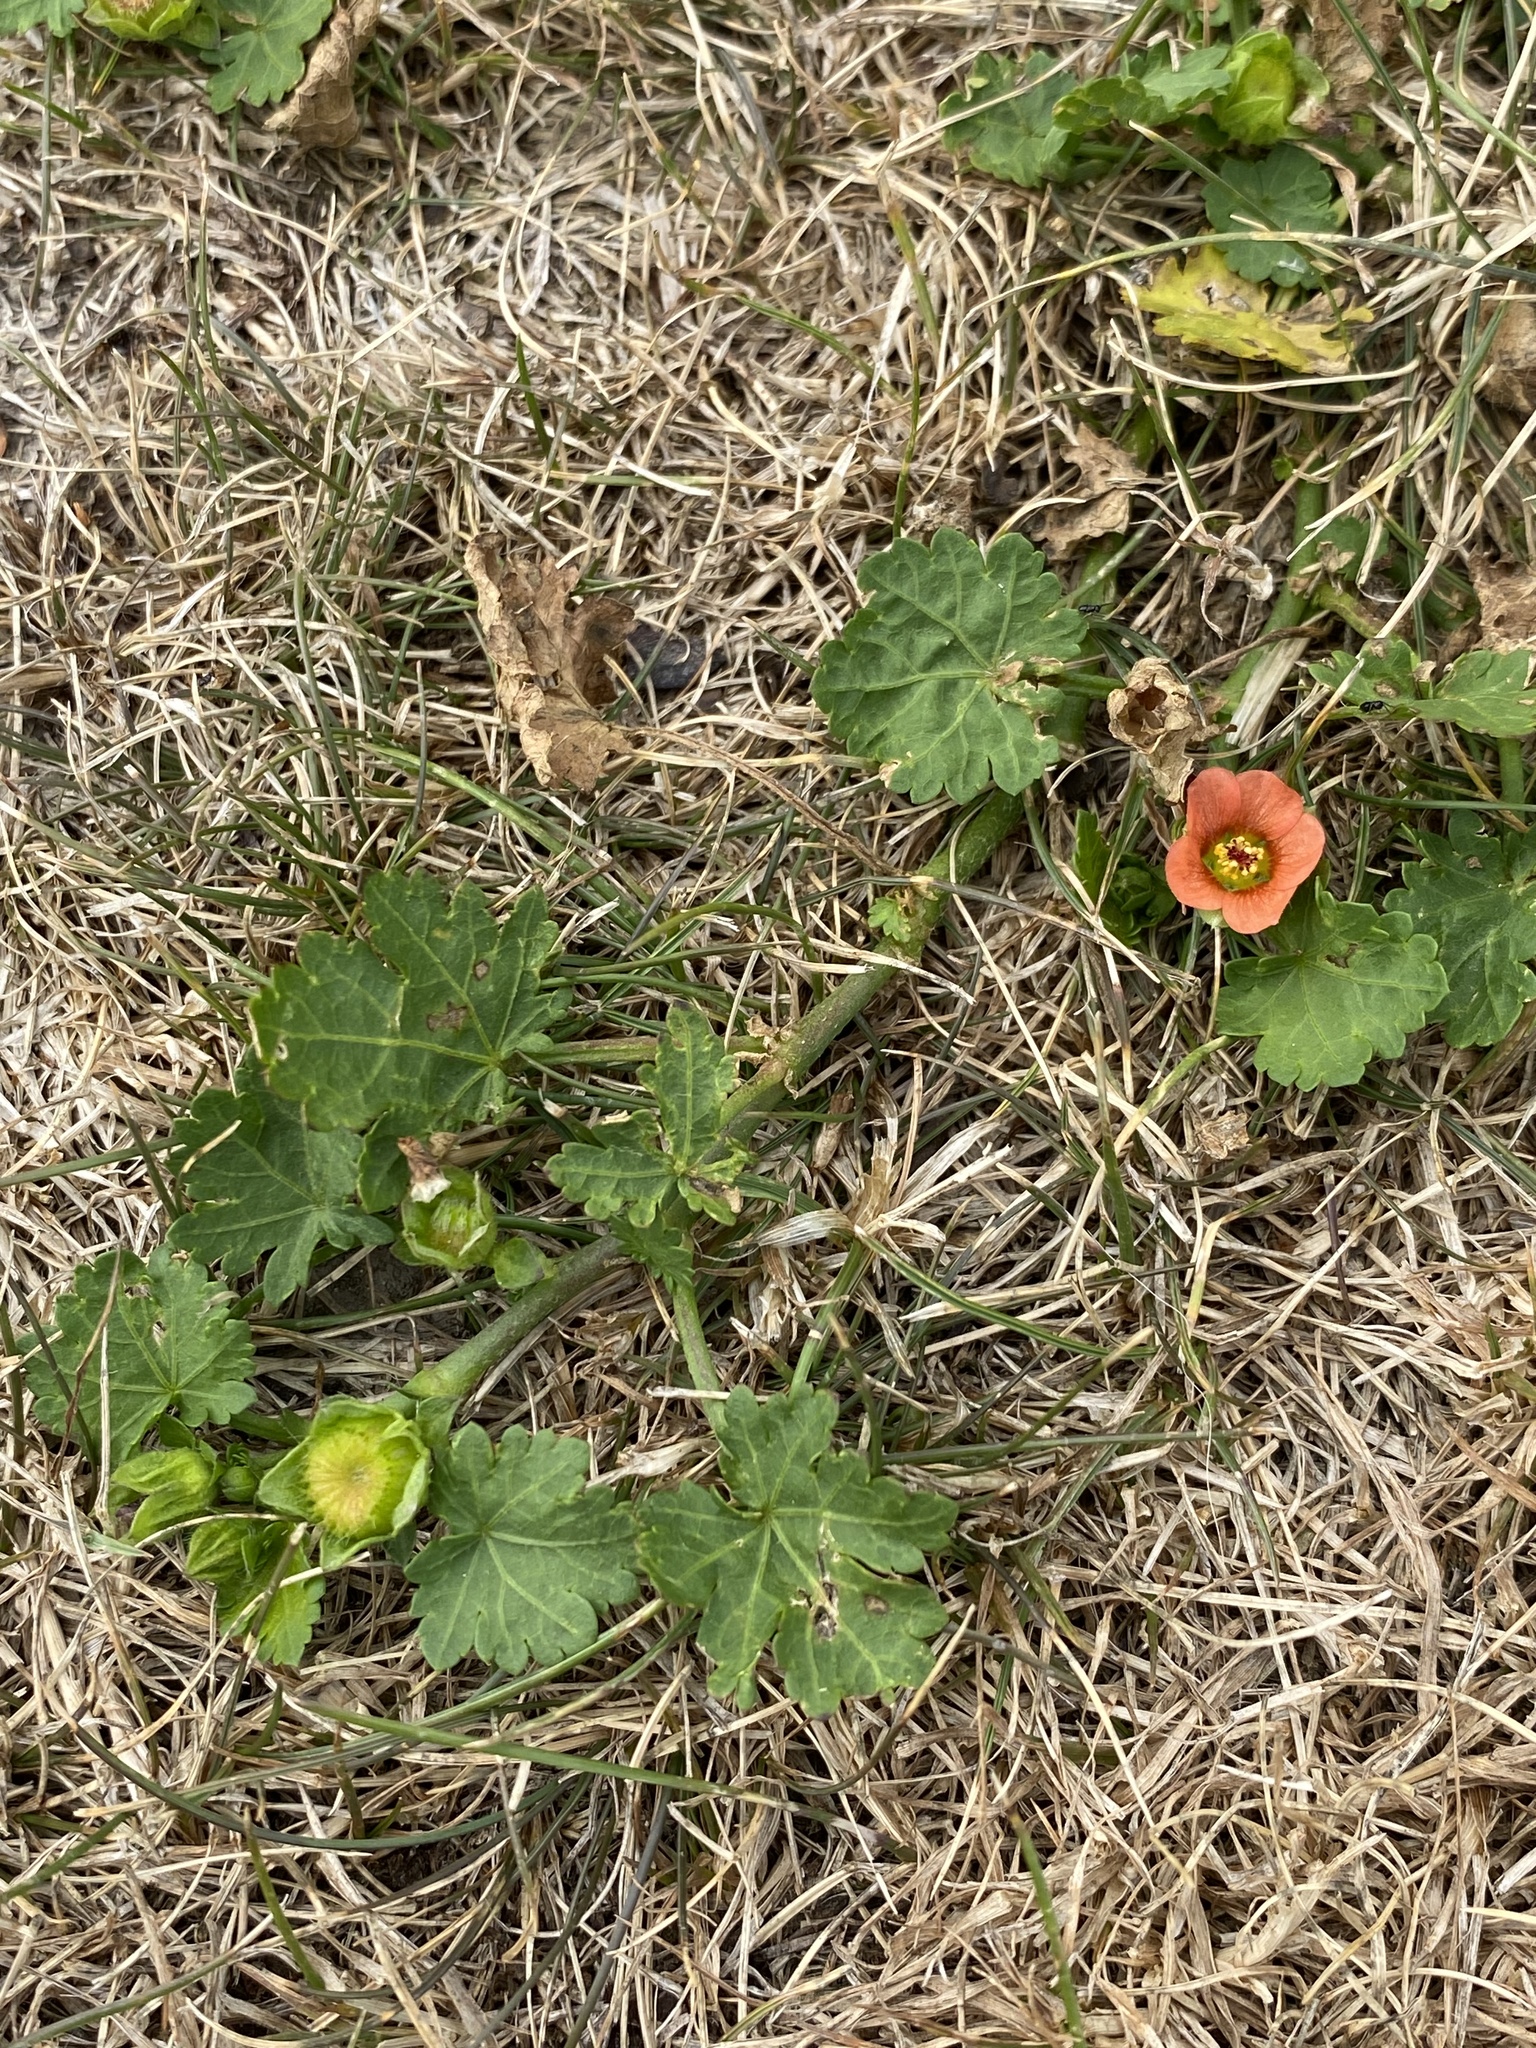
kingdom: Plantae
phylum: Tracheophyta
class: Magnoliopsida
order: Malvales
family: Malvaceae
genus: Modiola
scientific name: Modiola caroliniana
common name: Carolina bristlemallow
